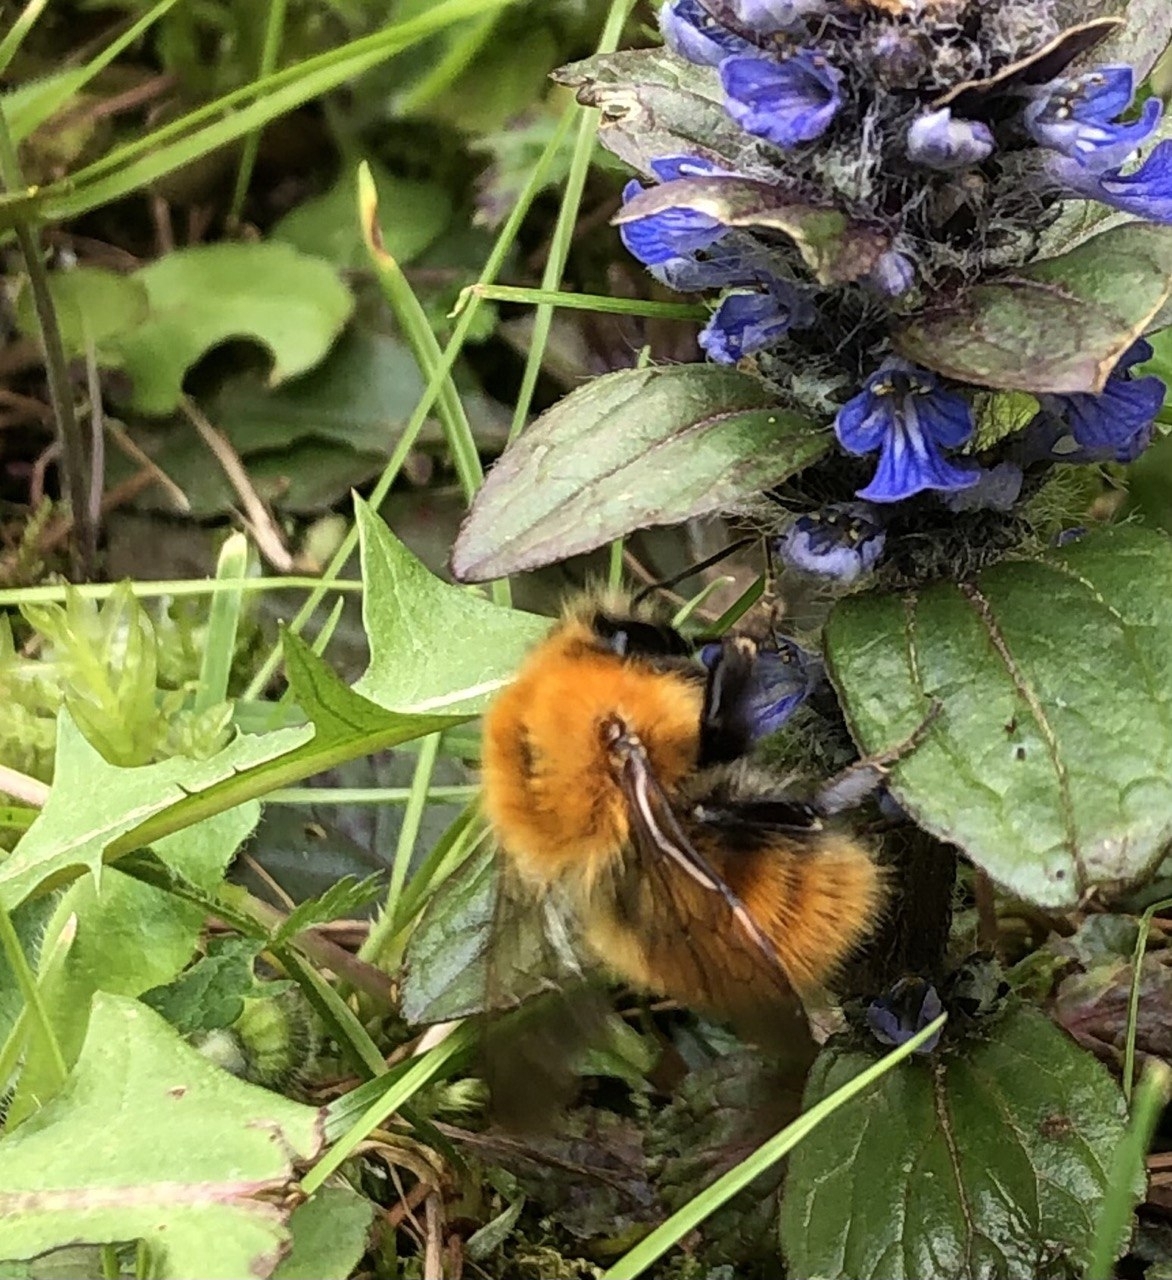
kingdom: Animalia
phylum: Arthropoda
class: Insecta
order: Hymenoptera
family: Apidae
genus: Bombus
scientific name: Bombus pascuorum
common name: Common carder bee
